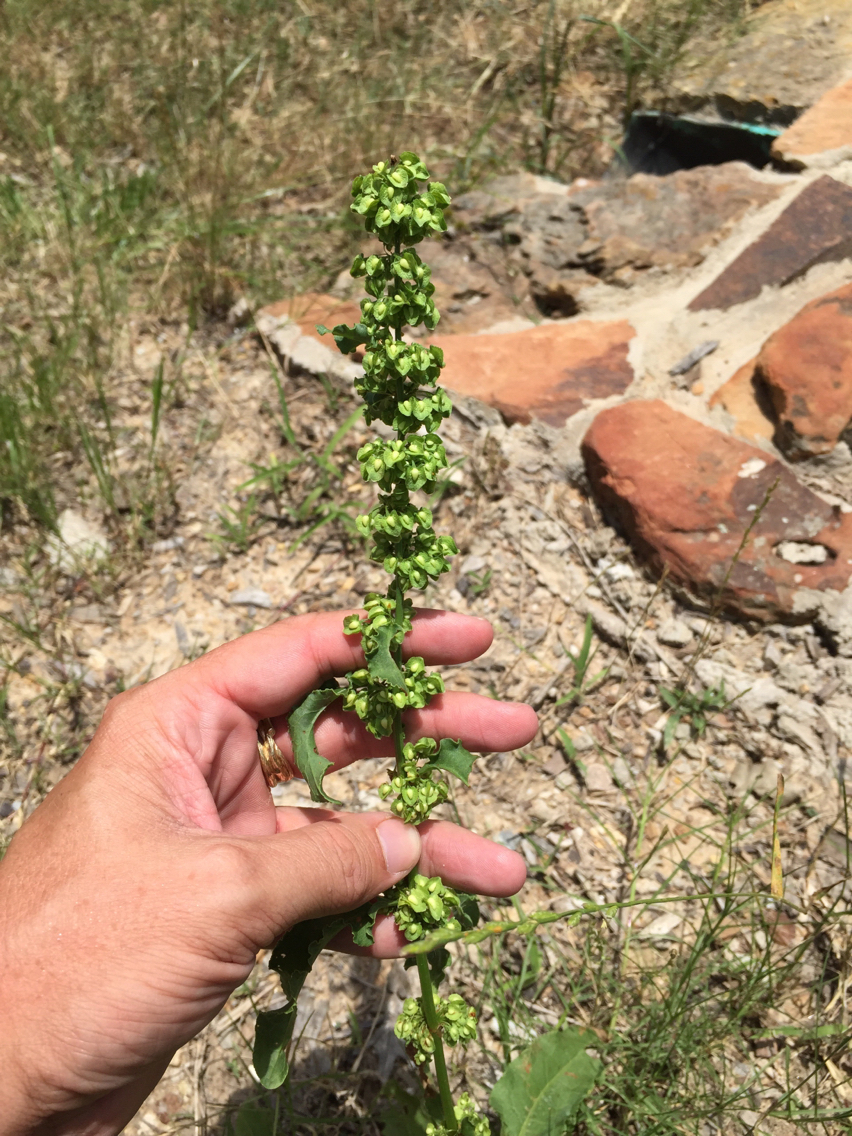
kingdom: Plantae
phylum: Tracheophyta
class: Magnoliopsida
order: Caryophyllales
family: Polygonaceae
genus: Rumex
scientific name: Rumex crispus
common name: Curled dock
